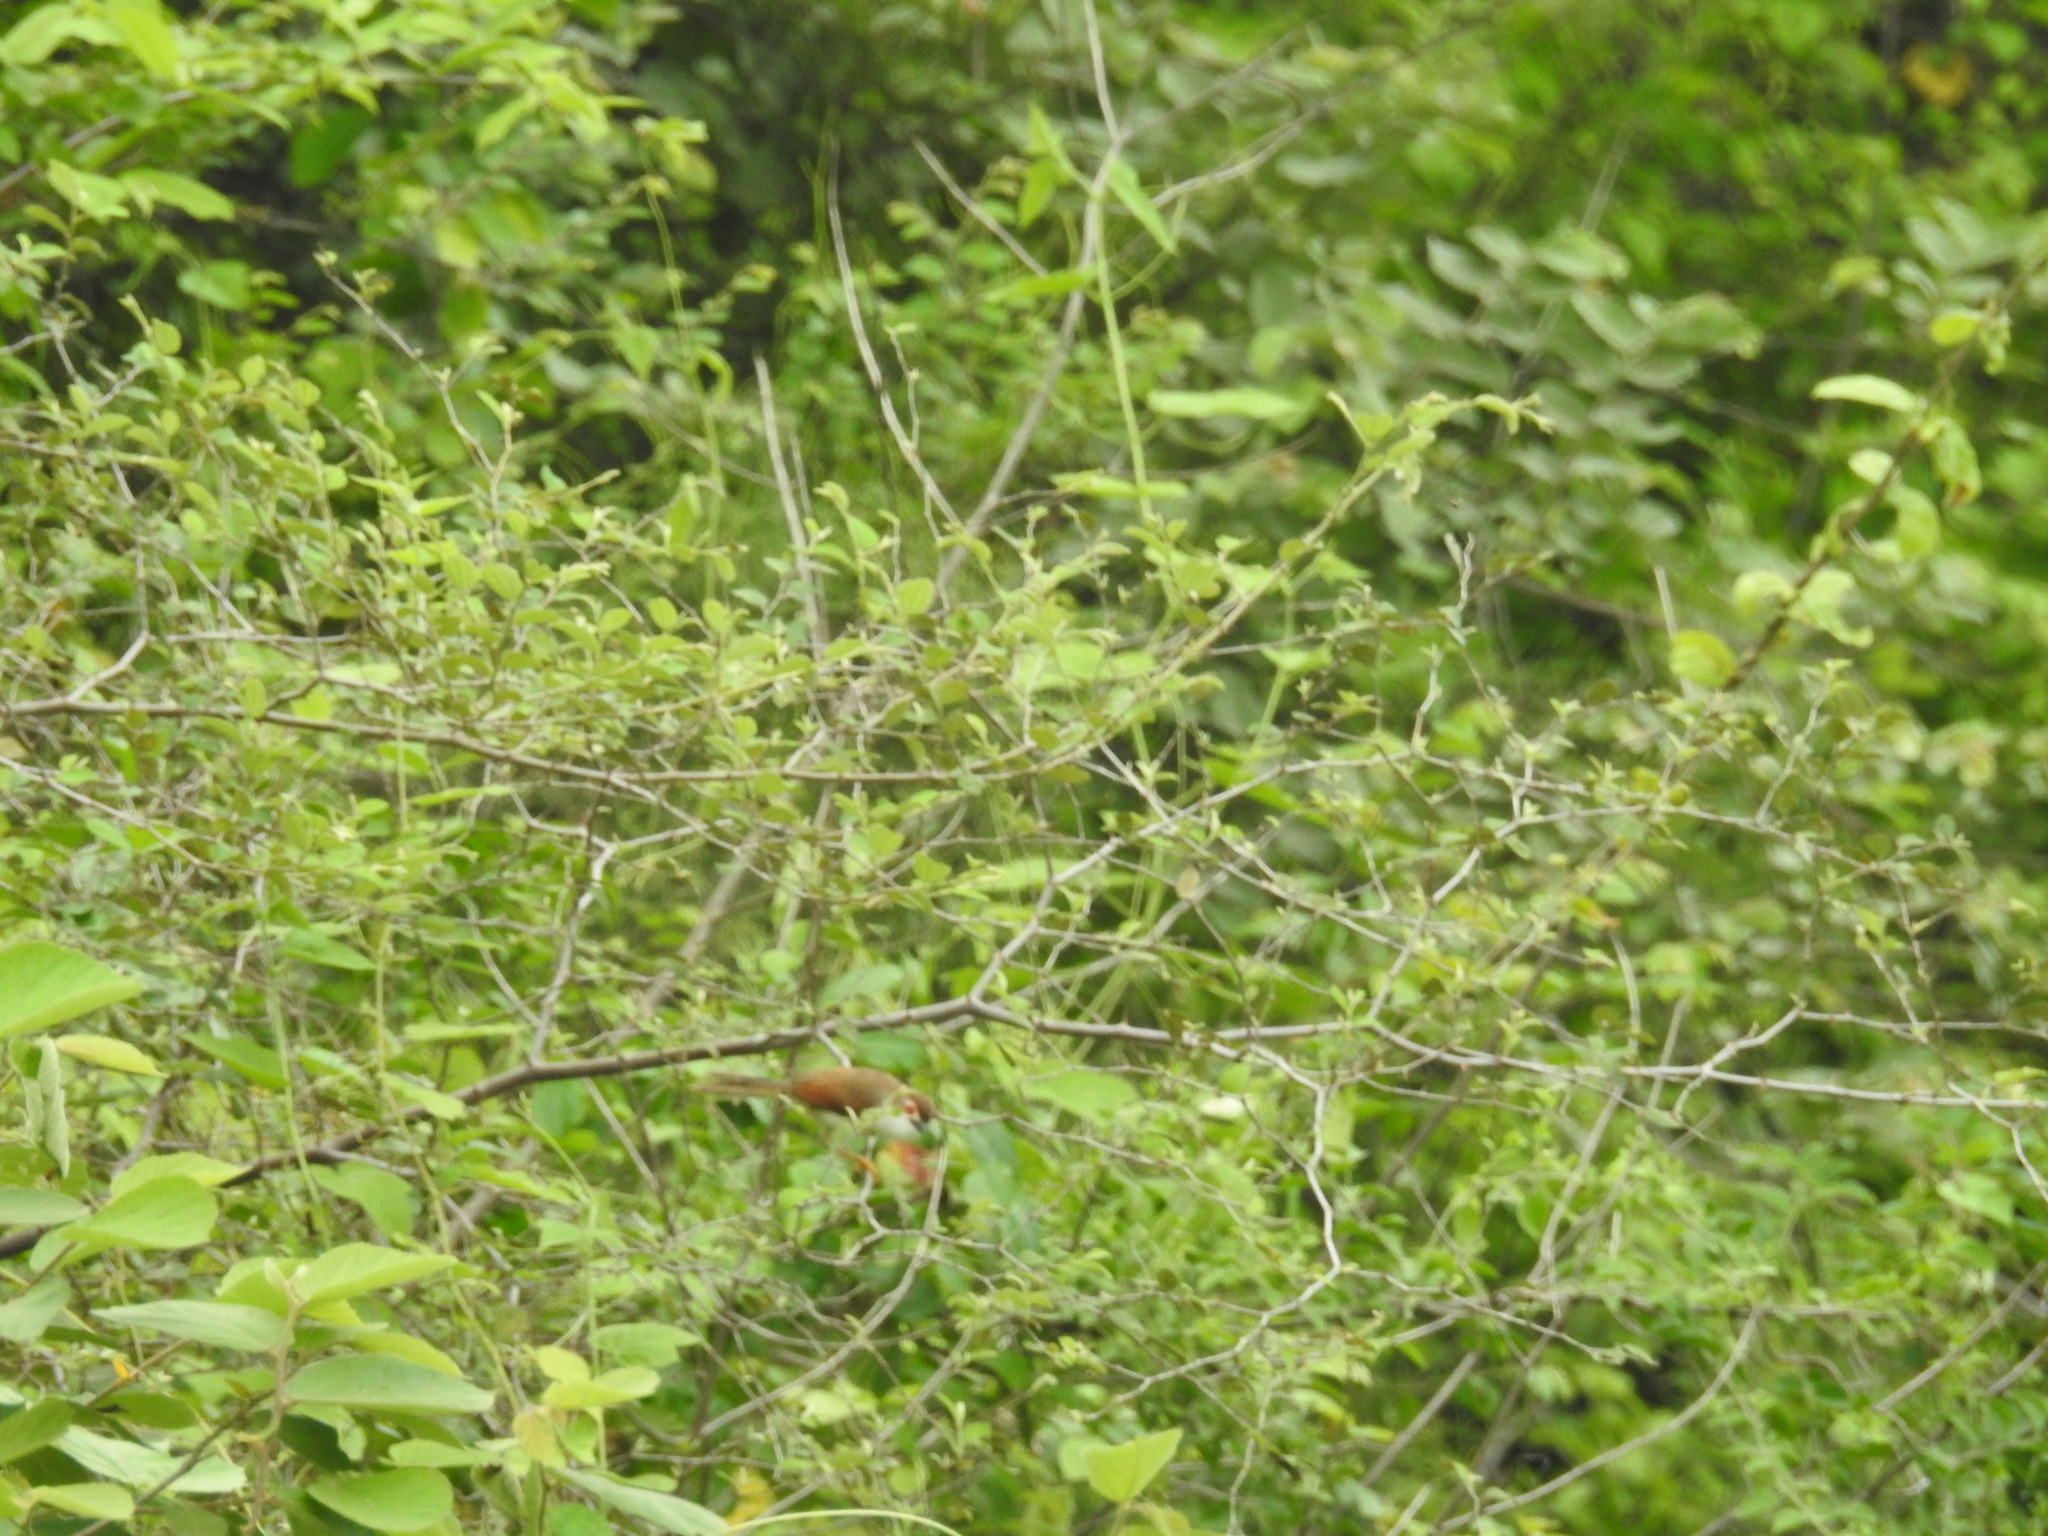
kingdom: Animalia
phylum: Chordata
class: Aves
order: Passeriformes
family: Sylviidae
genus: Chrysomma
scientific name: Chrysomma sinense
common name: Yellow-eyed babbler
